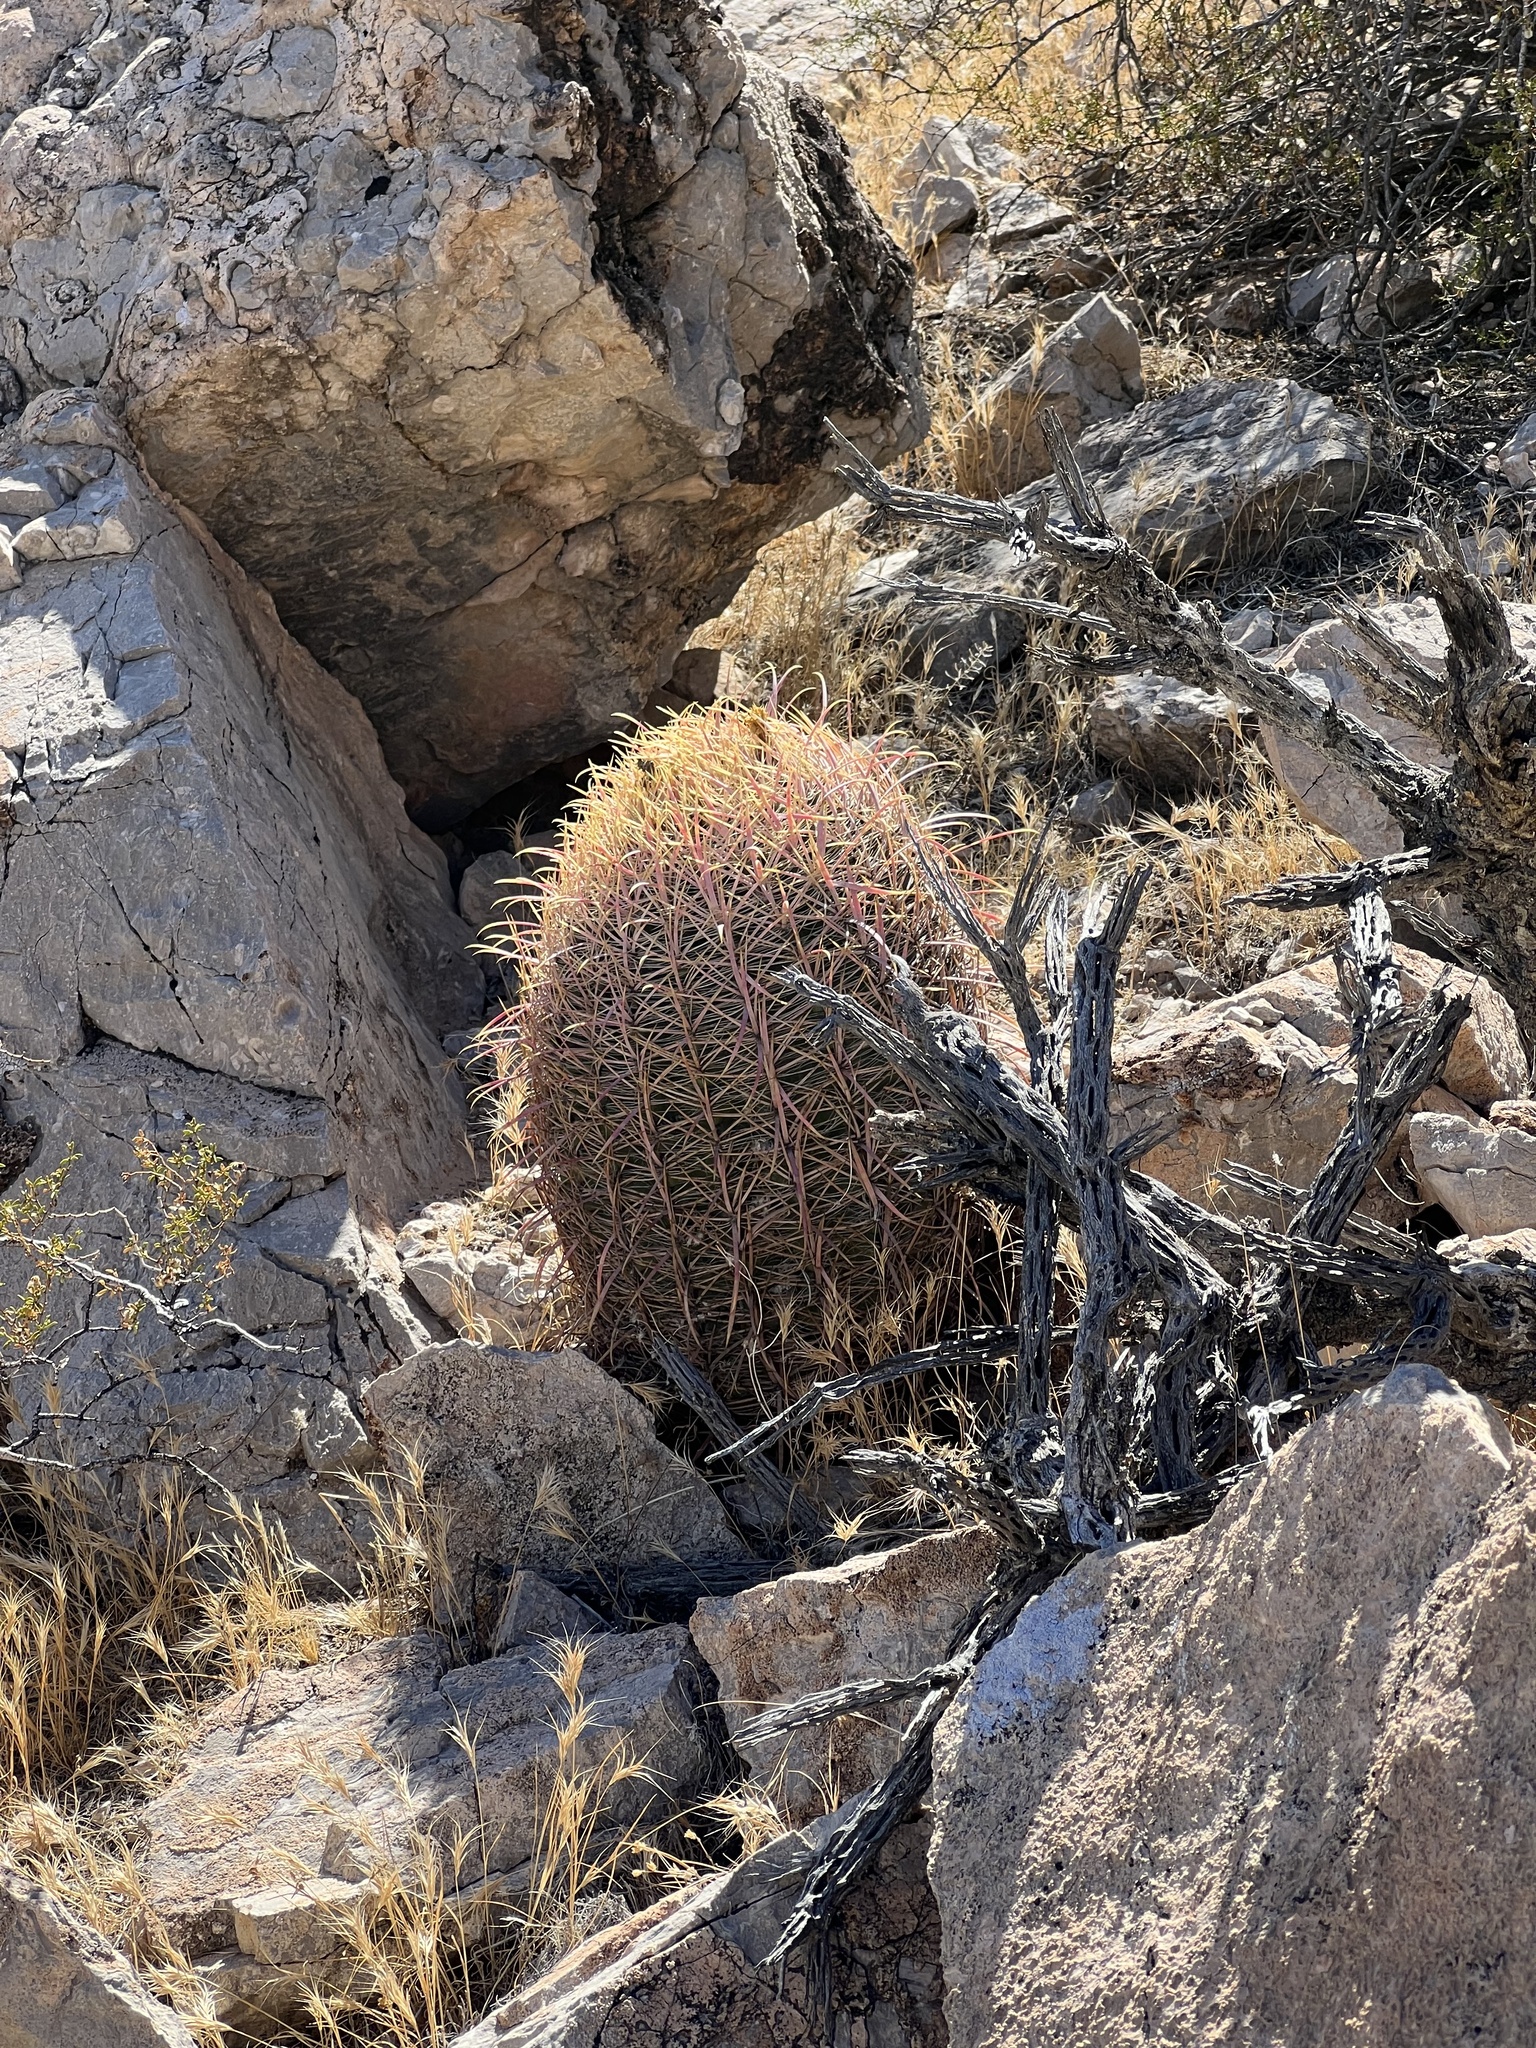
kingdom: Plantae
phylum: Tracheophyta
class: Magnoliopsida
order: Caryophyllales
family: Cactaceae
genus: Ferocactus
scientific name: Ferocactus cylindraceus
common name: California barrel cactus
